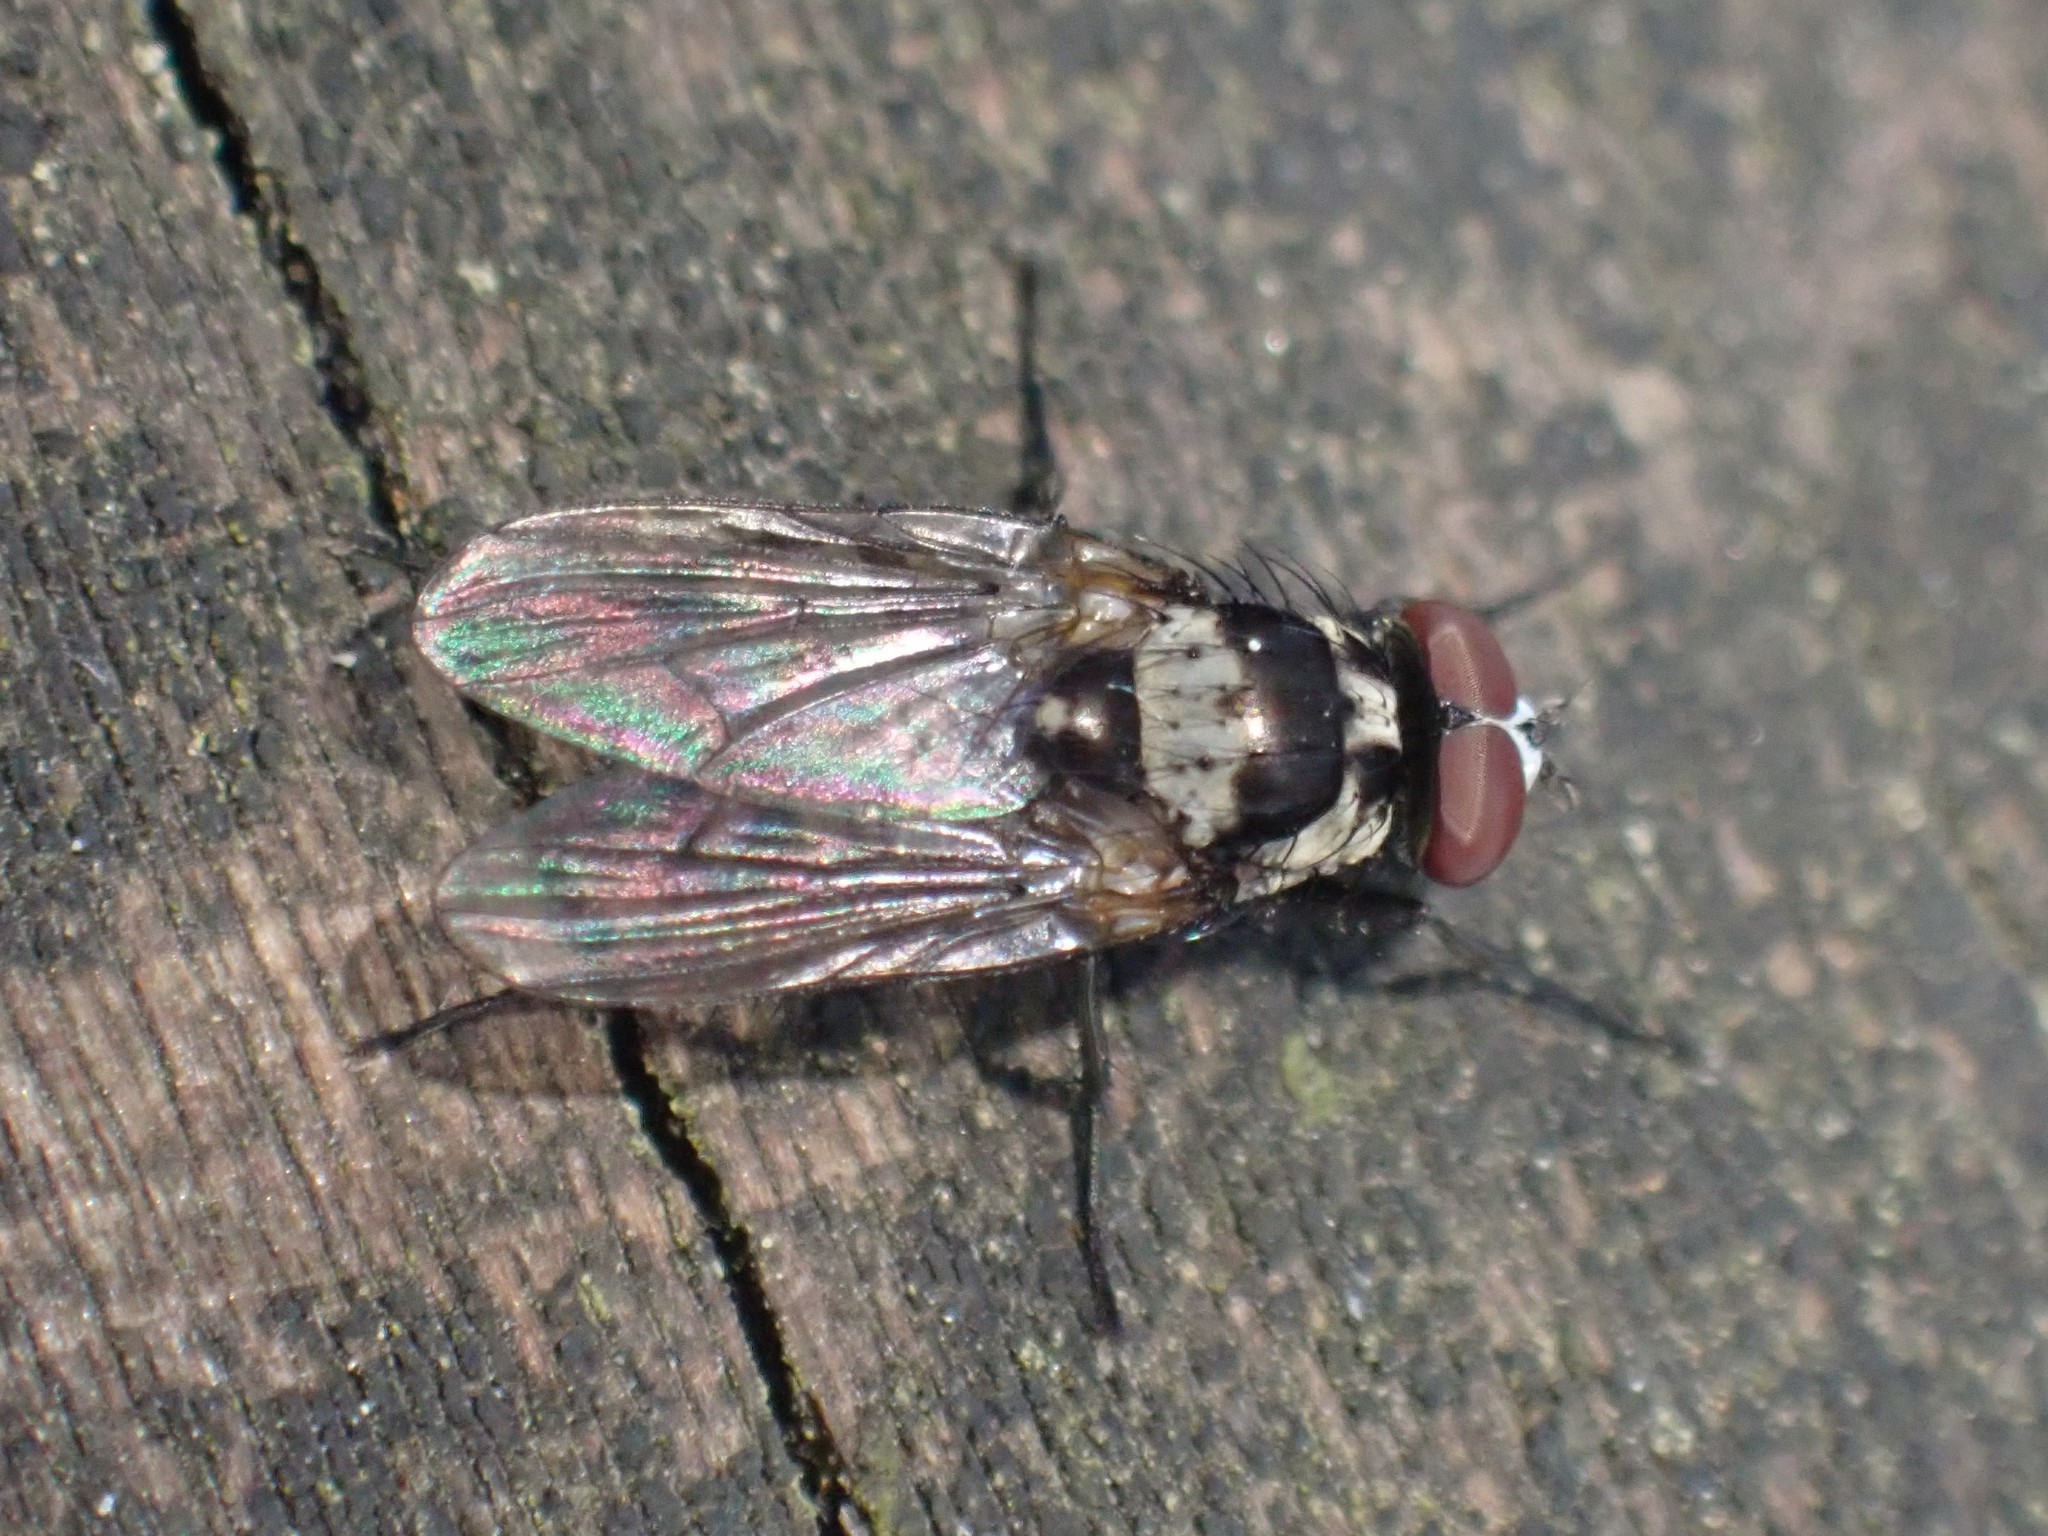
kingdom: Animalia
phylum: Arthropoda
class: Insecta
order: Diptera
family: Anthomyiidae
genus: Anthomyia
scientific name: Anthomyia oculifera
